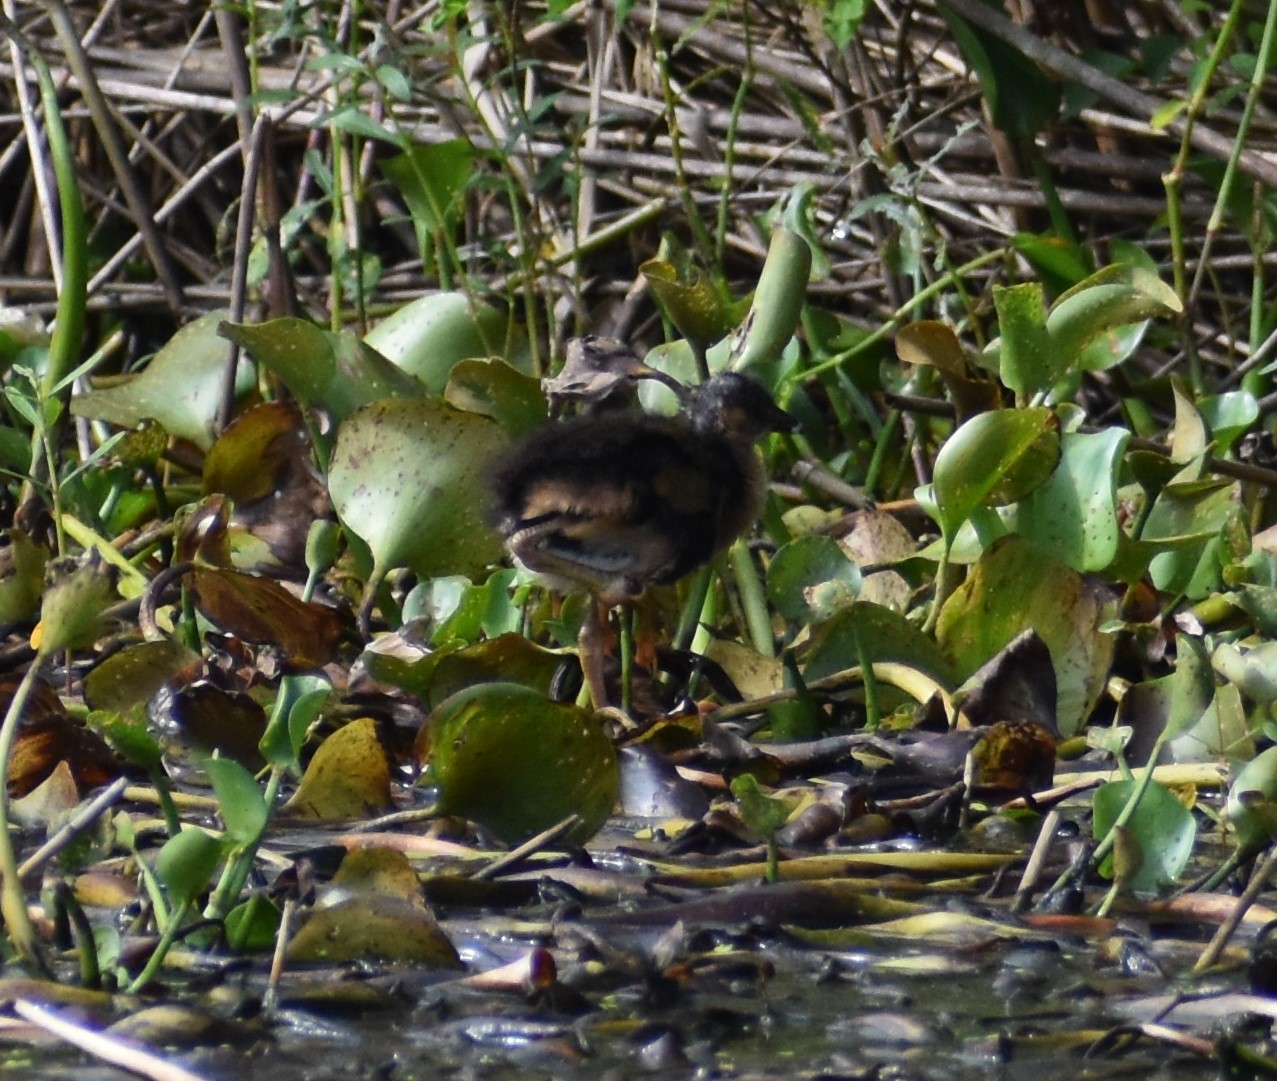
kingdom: Animalia
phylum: Chordata
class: Aves
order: Gruiformes
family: Rallidae
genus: Porphyrio
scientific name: Porphyrio martinica
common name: Purple gallinule
